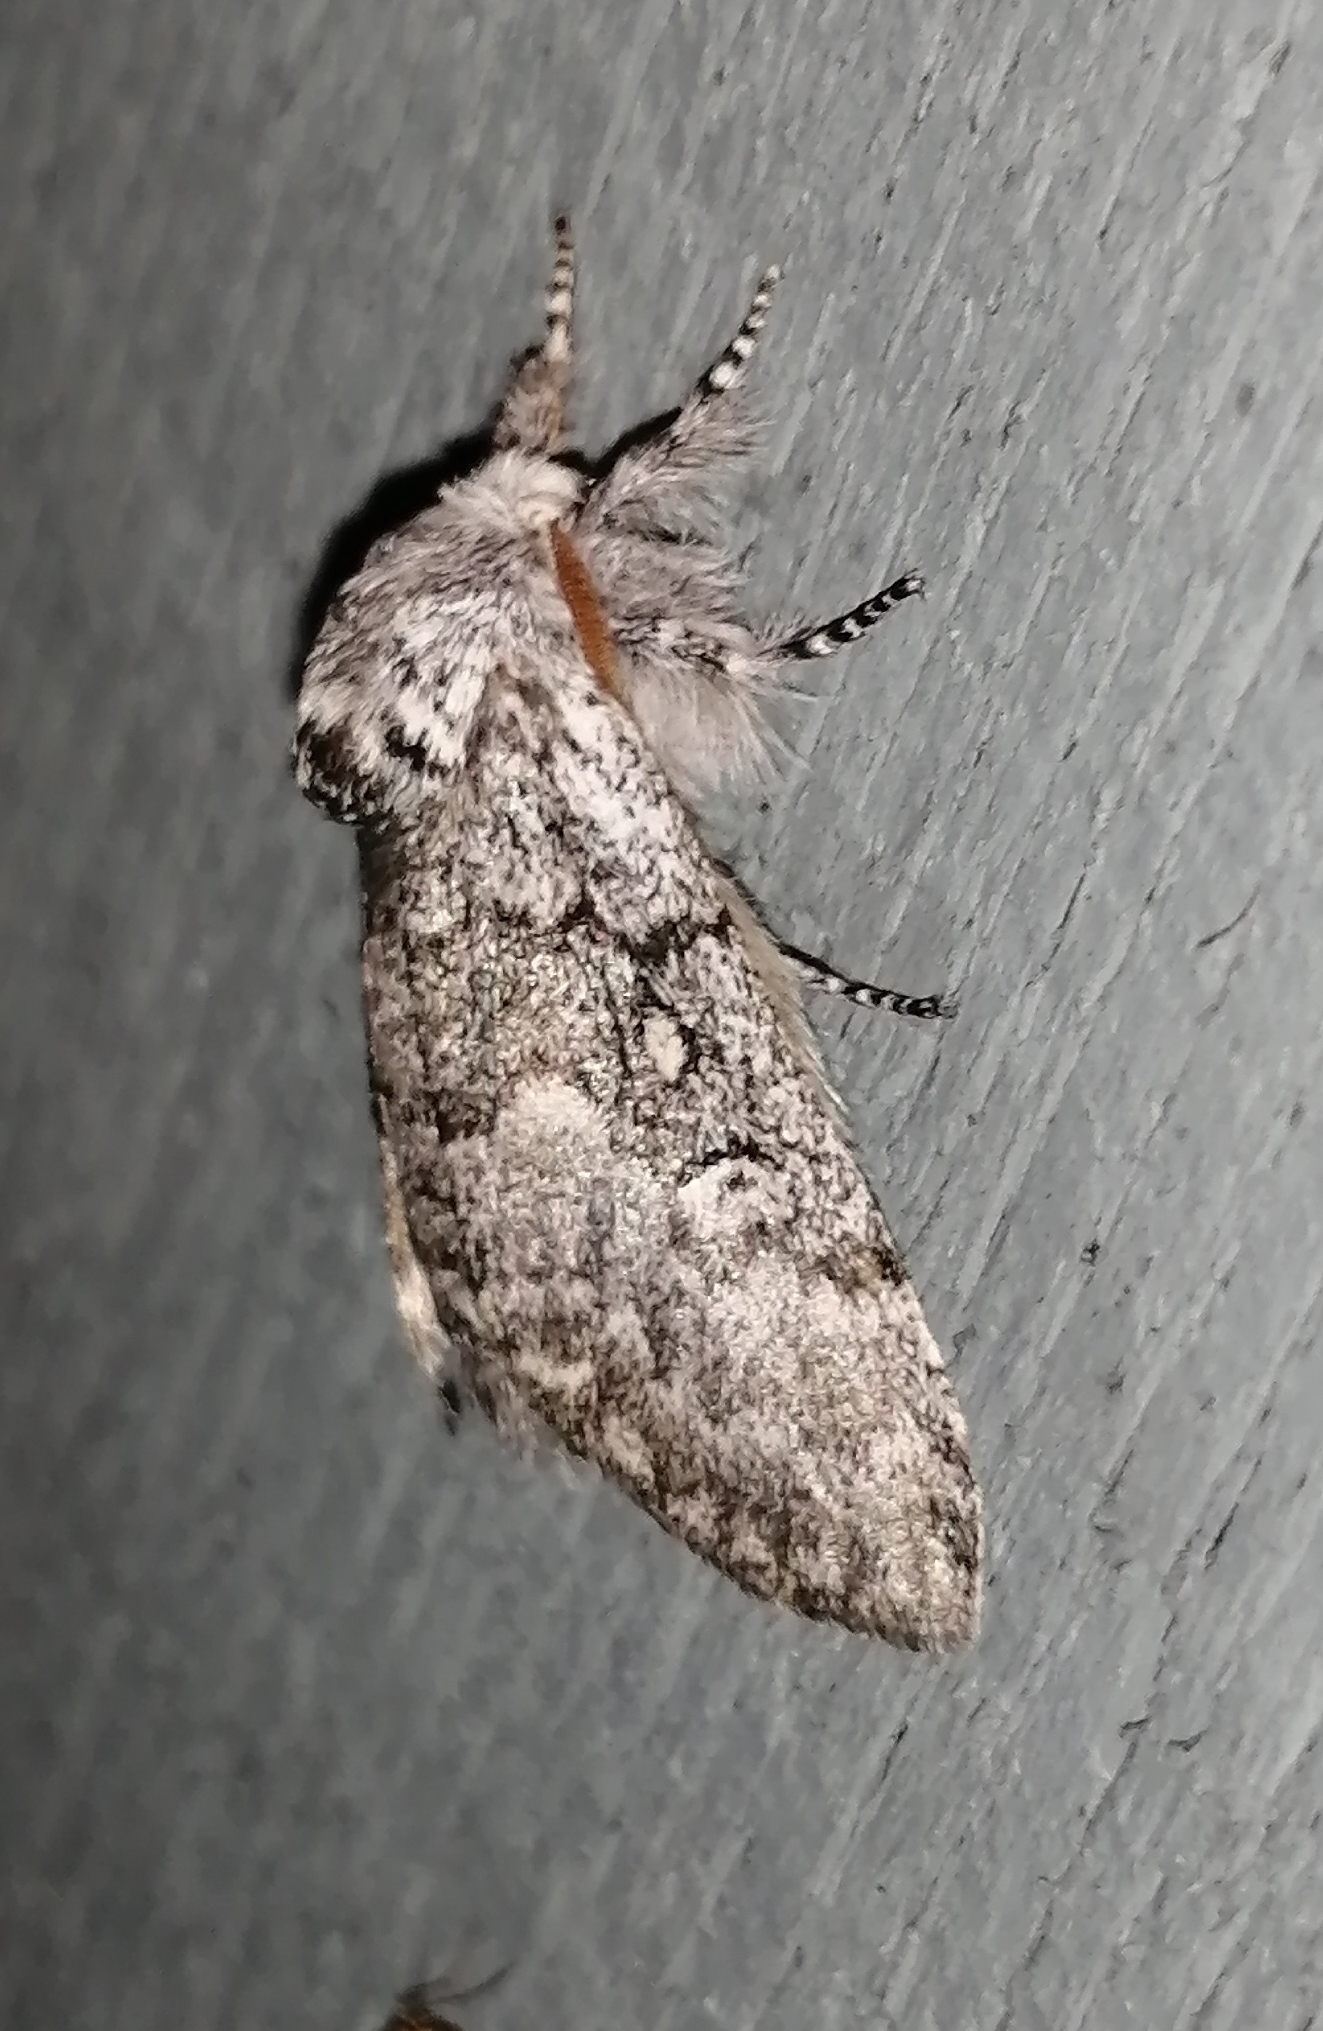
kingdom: Animalia
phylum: Arthropoda
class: Insecta
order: Lepidoptera
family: Noctuidae
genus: Colocasia
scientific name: Colocasia propinquilinea
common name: Close-banded demas
